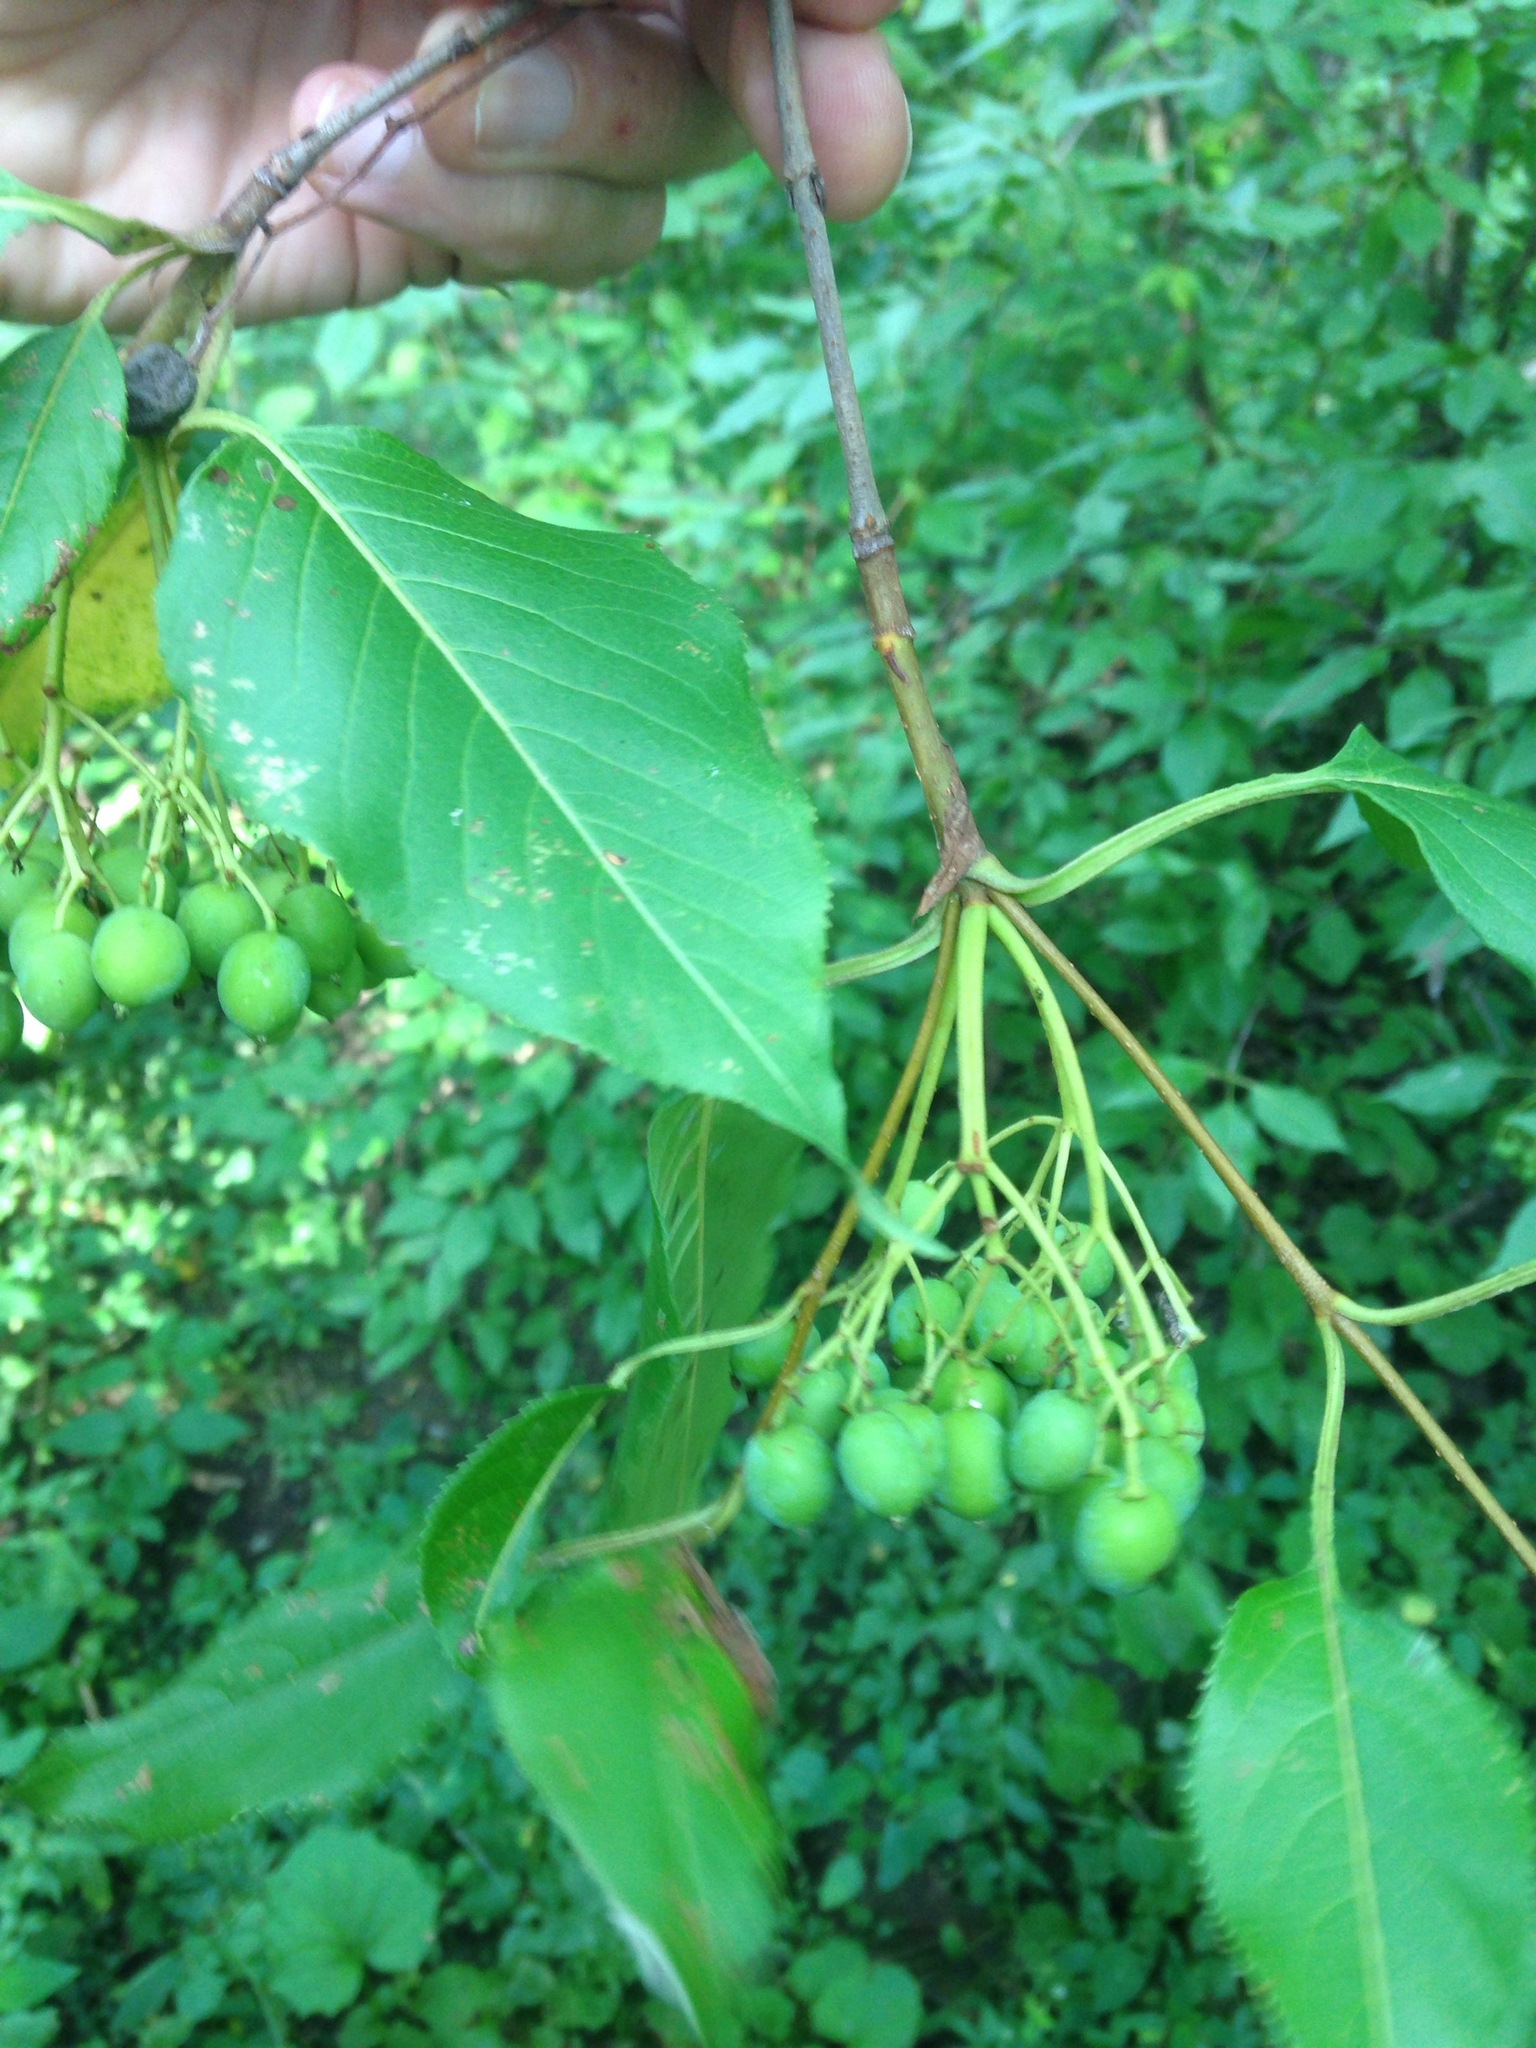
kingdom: Plantae
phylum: Tracheophyta
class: Magnoliopsida
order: Dipsacales
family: Viburnaceae
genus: Viburnum
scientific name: Viburnum lentago
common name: Black haw
